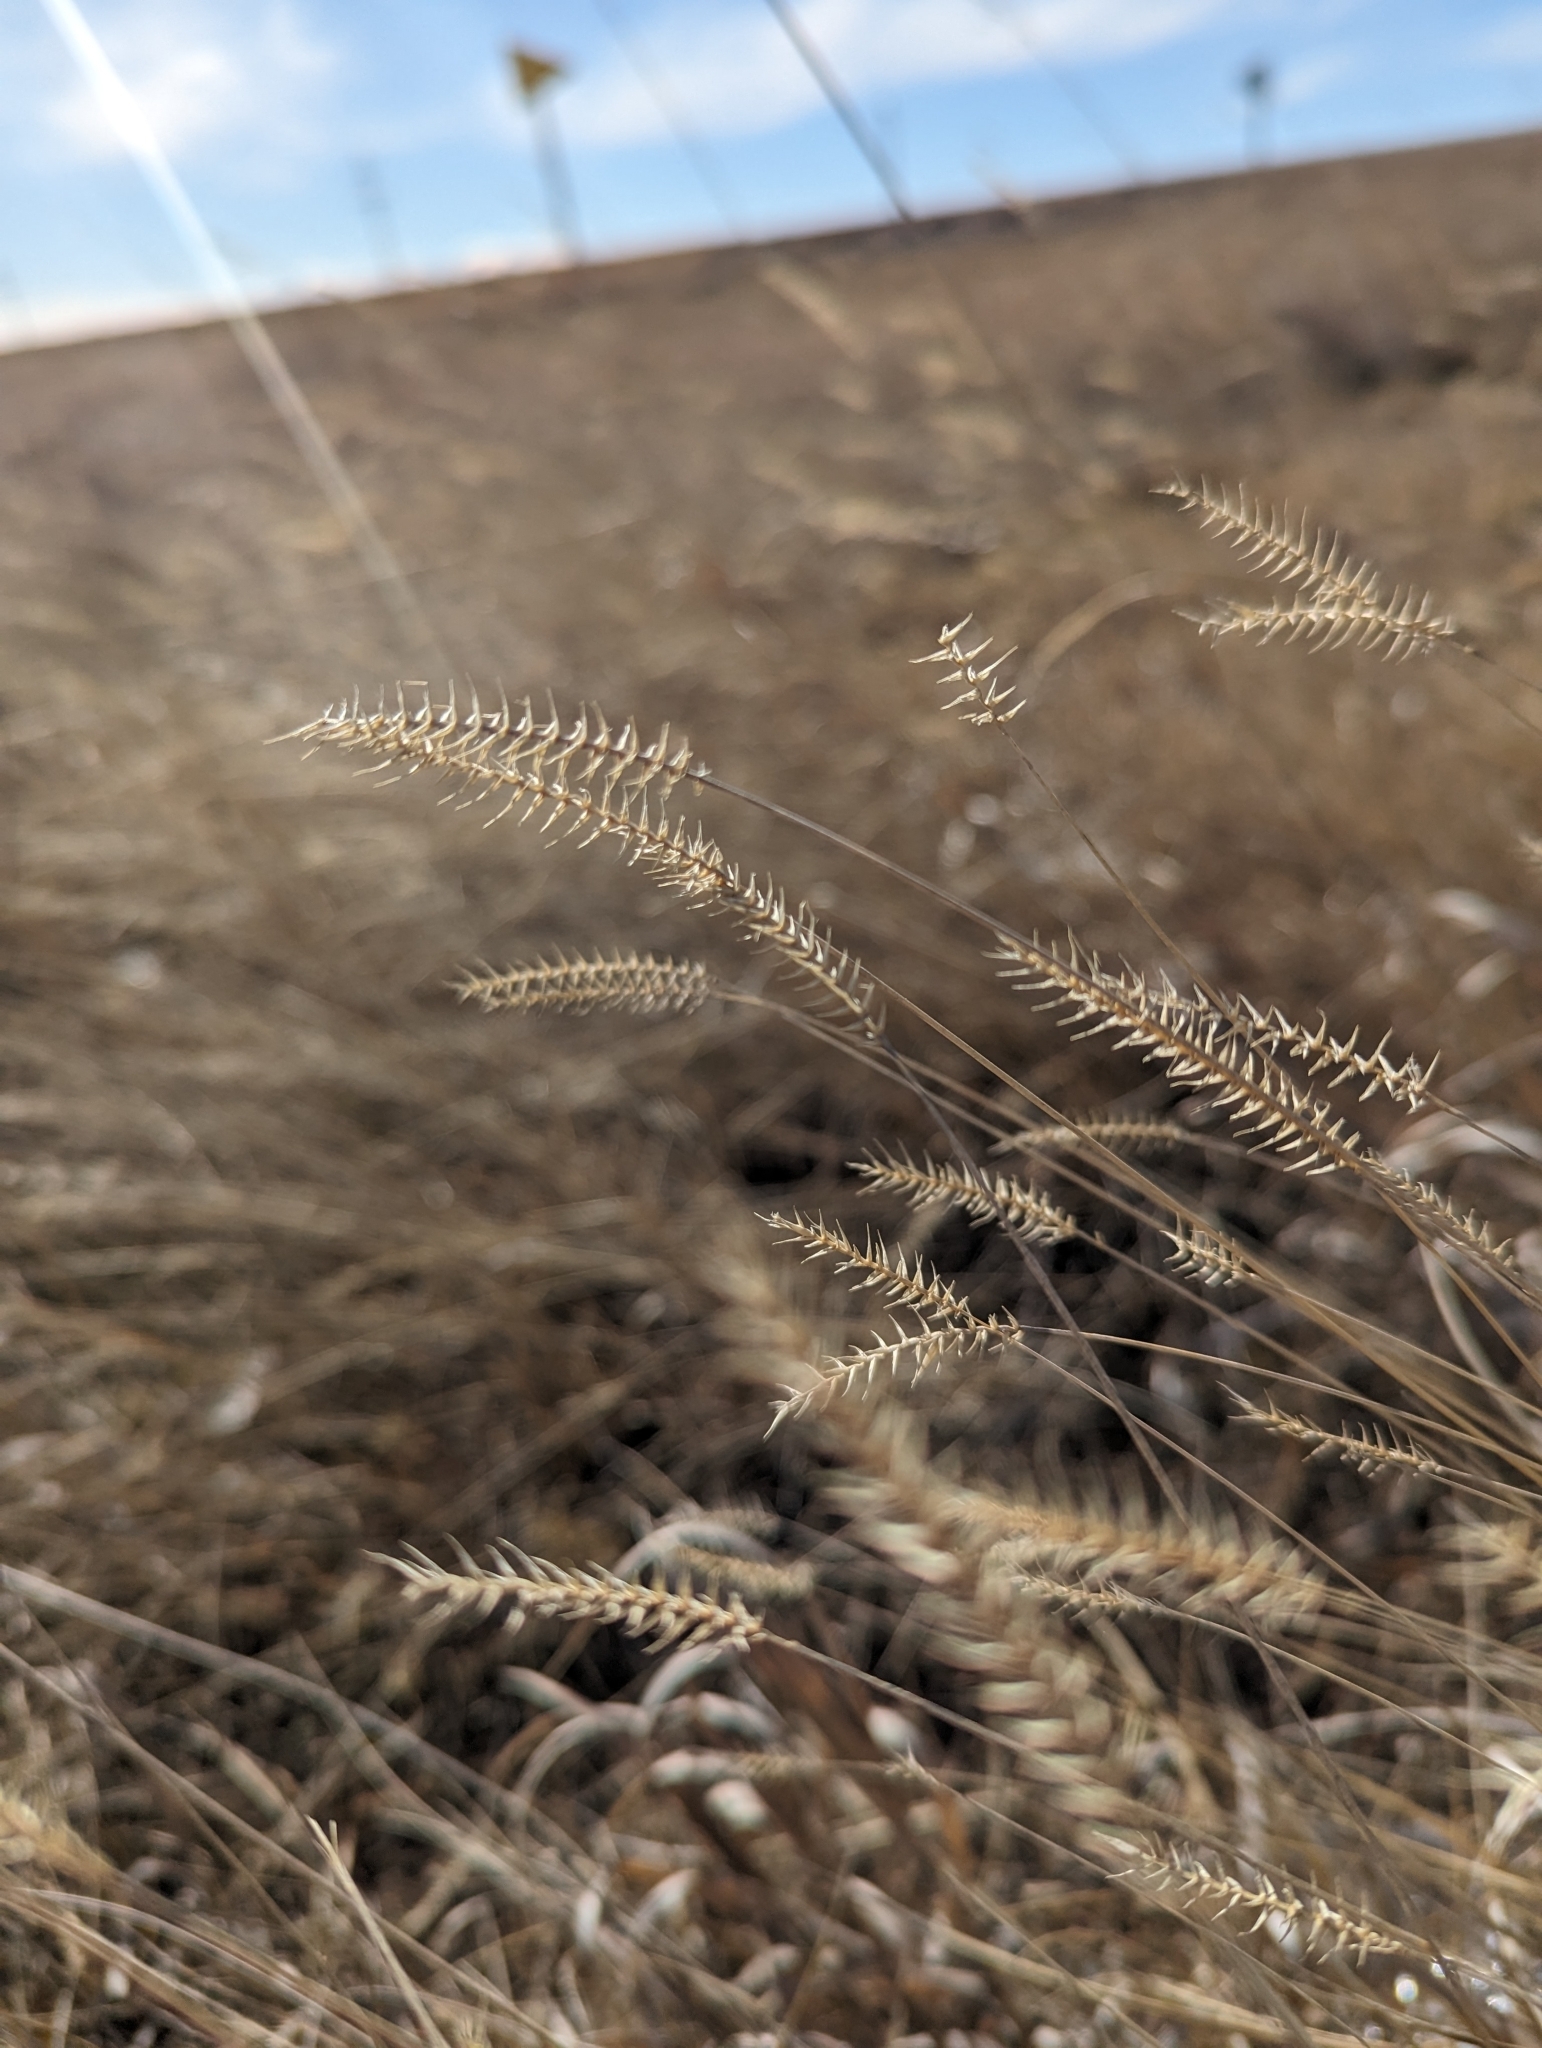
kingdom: Plantae
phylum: Tracheophyta
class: Liliopsida
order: Poales
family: Poaceae
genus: Agropyron
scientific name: Agropyron cristatum
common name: Crested wheatgrass
